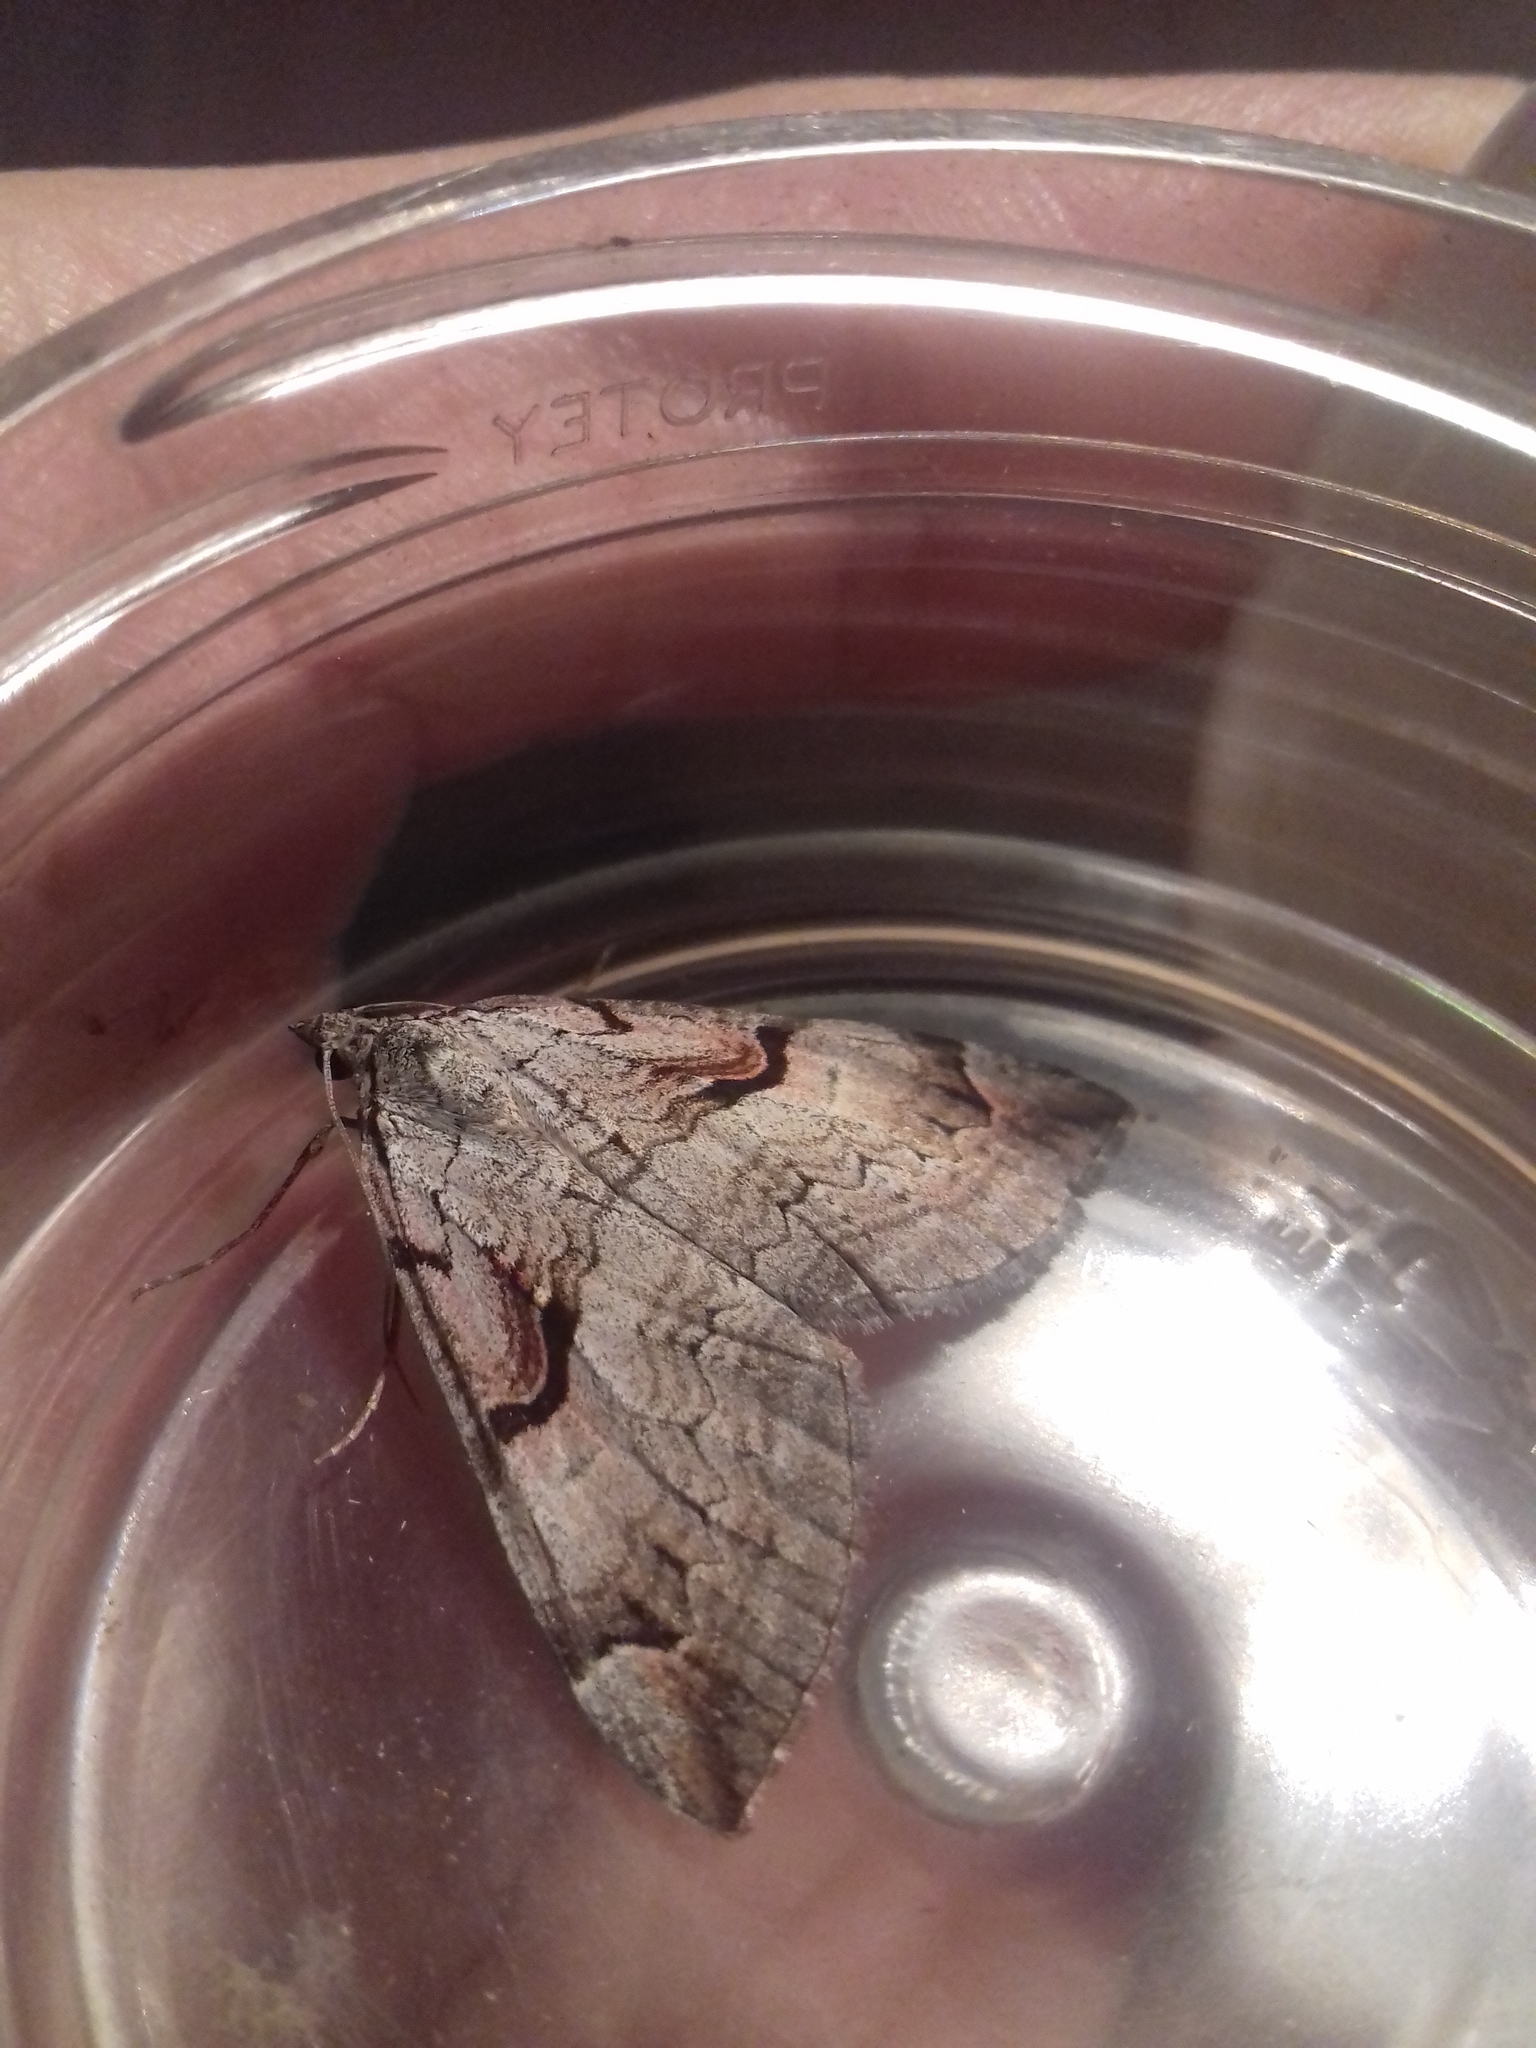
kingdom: Animalia
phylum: Arthropoda
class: Insecta
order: Lepidoptera
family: Geometridae
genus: Aplocera
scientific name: Aplocera praeformata
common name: Purple treble-bar
